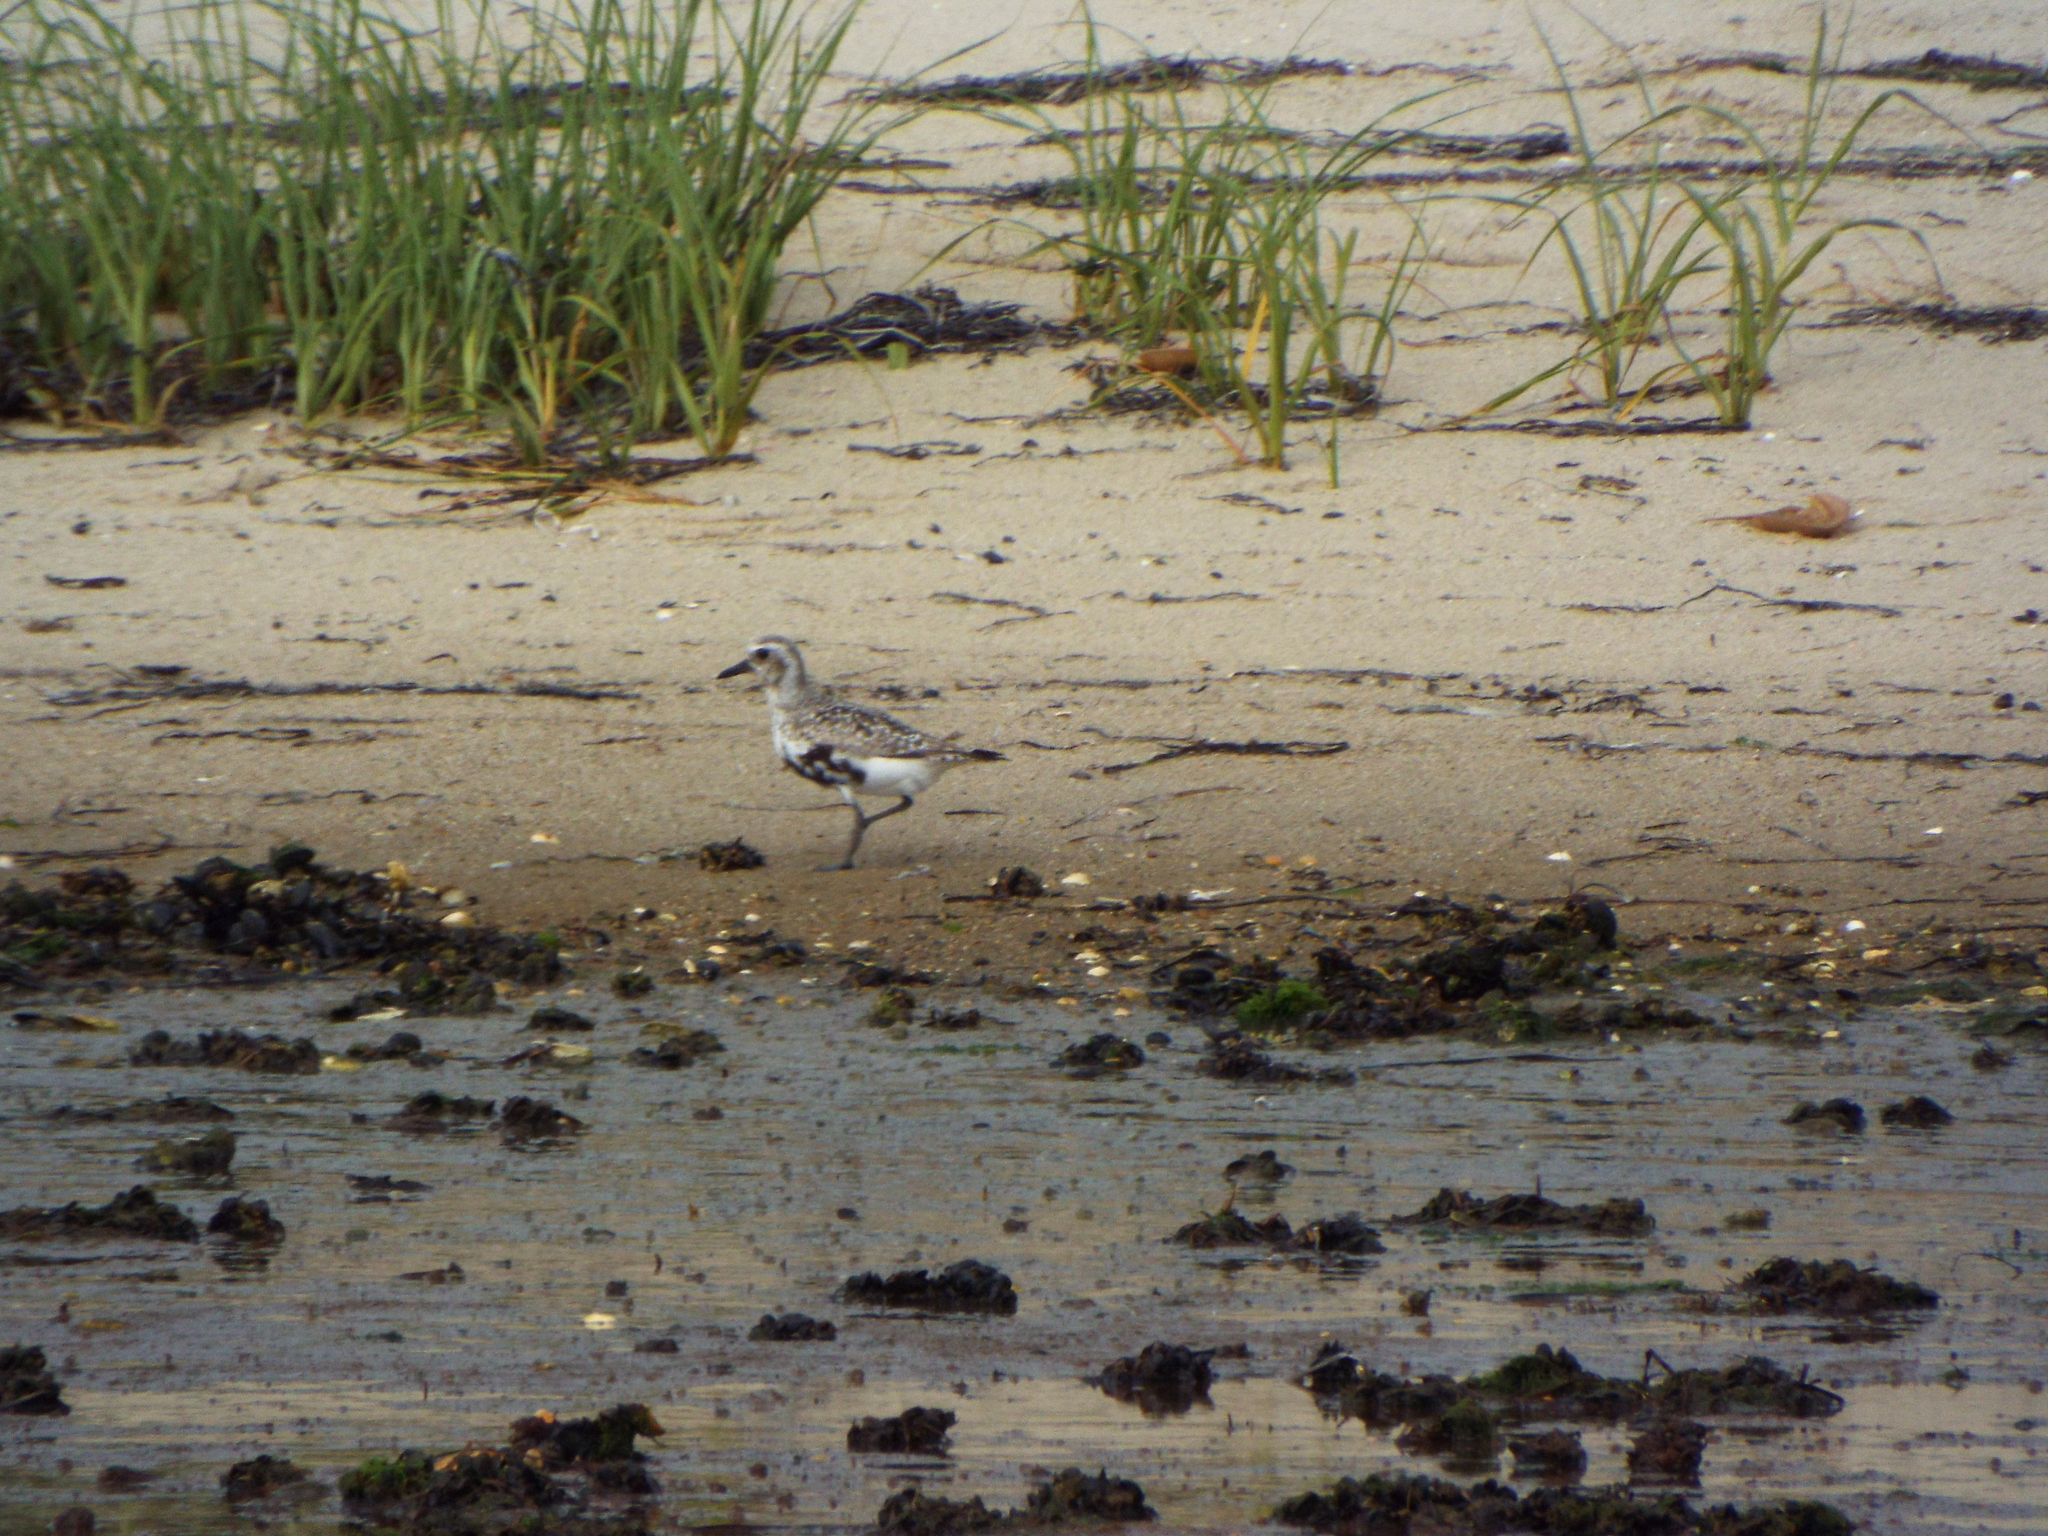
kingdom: Animalia
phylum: Chordata
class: Aves
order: Charadriiformes
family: Charadriidae
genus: Pluvialis
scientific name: Pluvialis squatarola
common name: Grey plover
